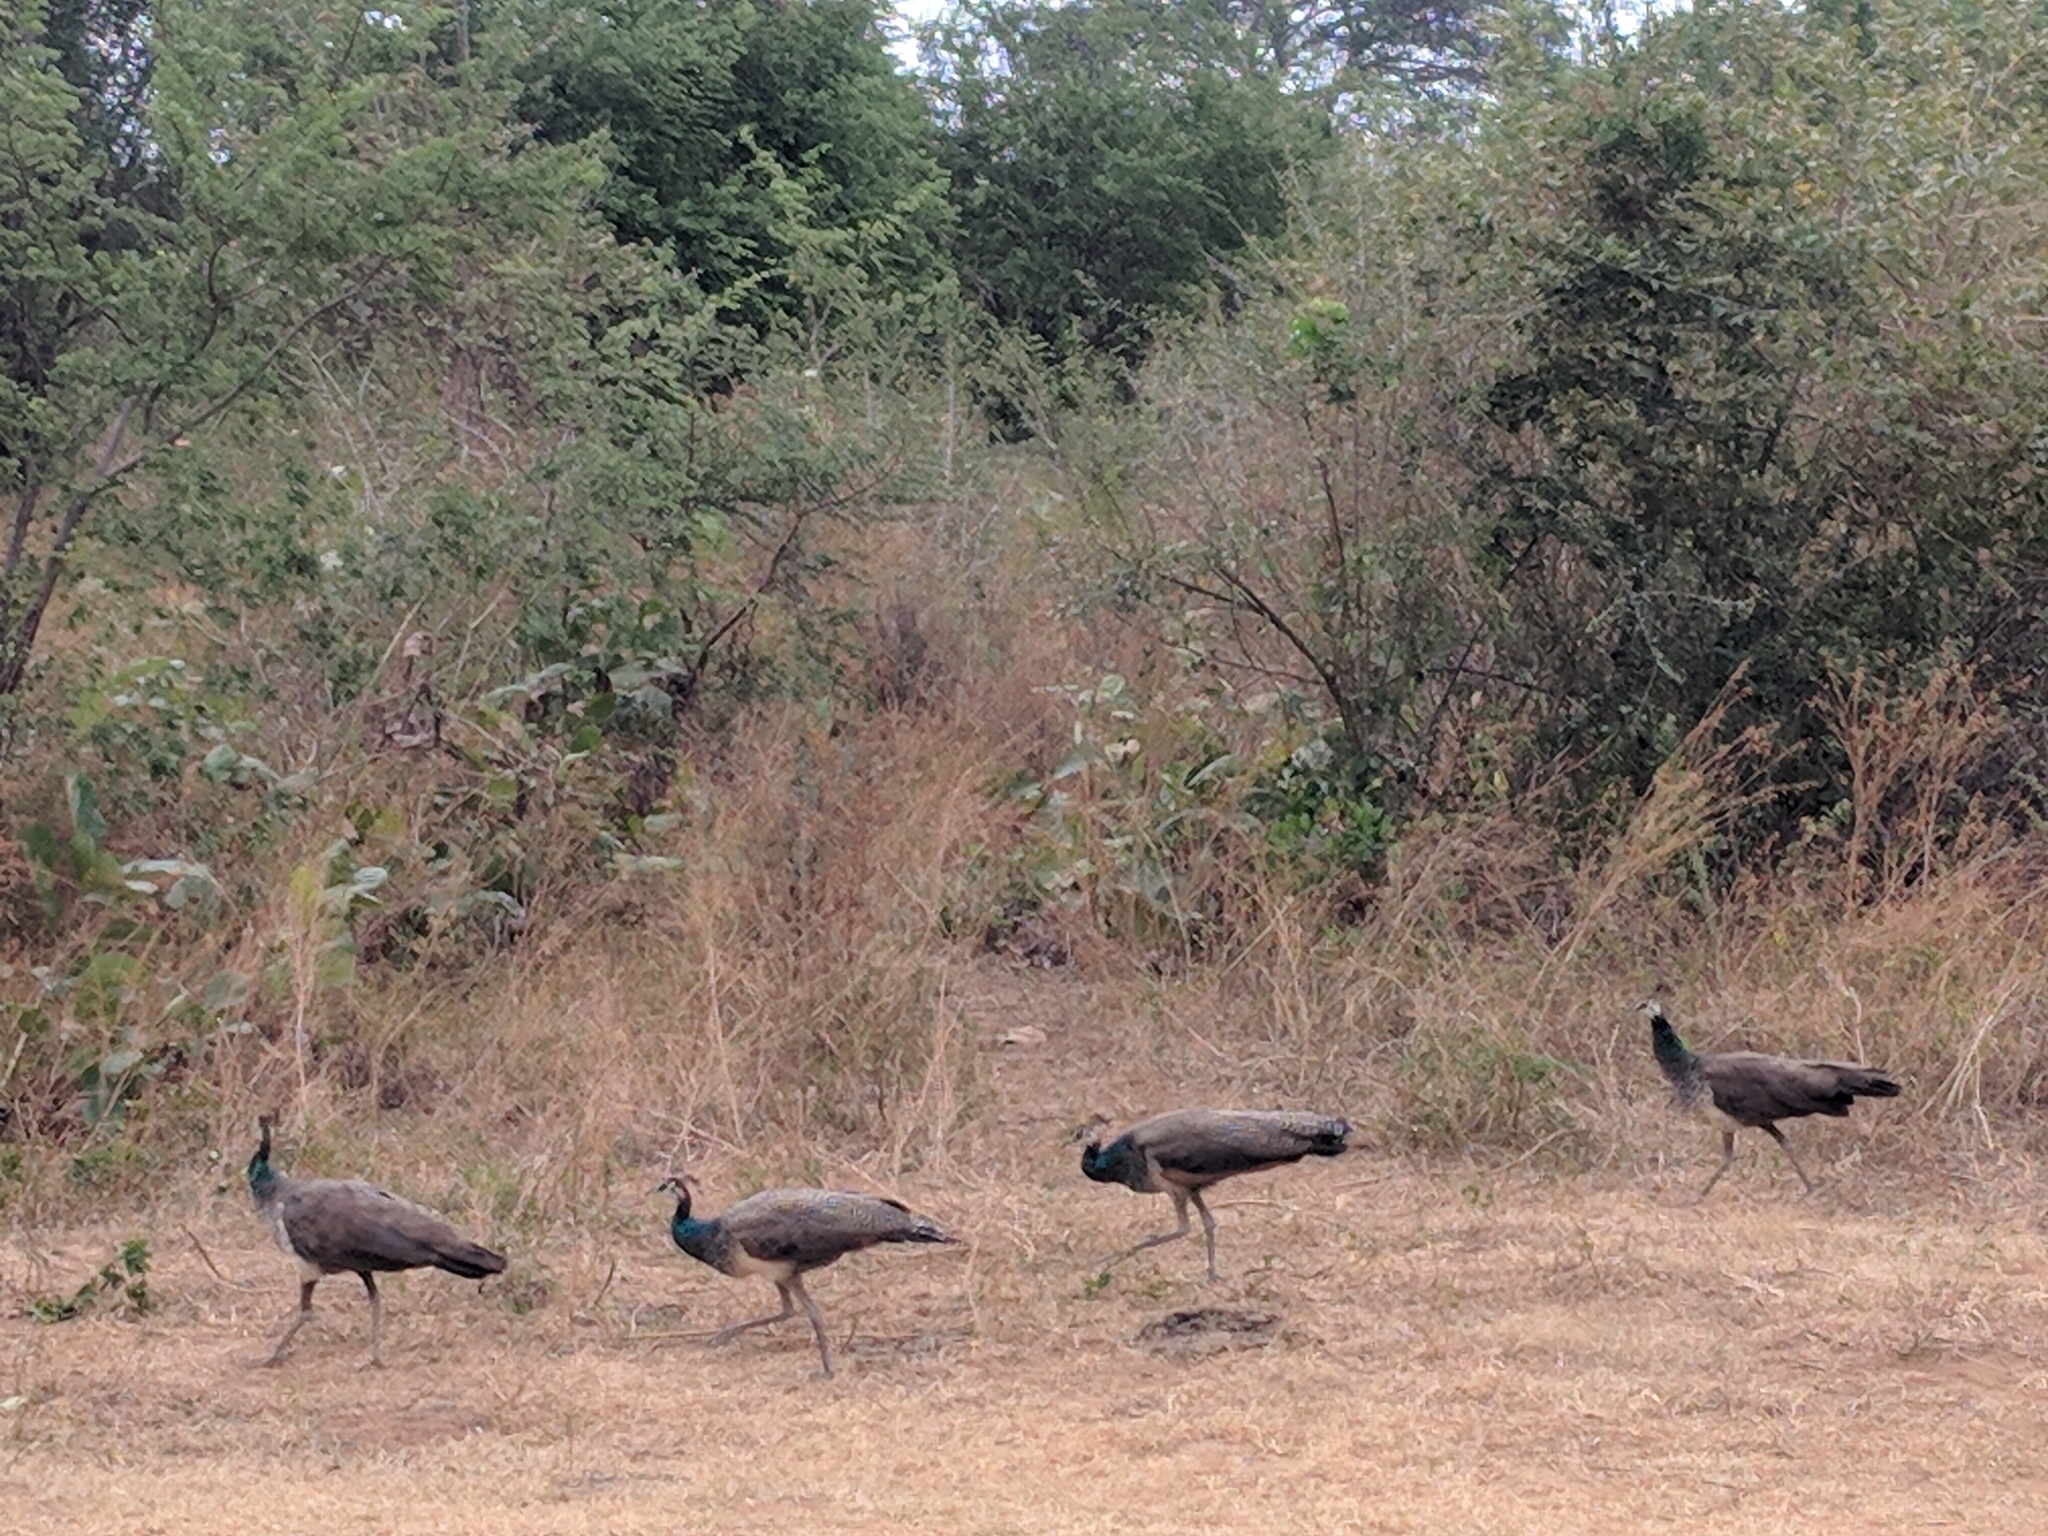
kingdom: Animalia
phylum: Chordata
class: Aves
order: Galliformes
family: Phasianidae
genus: Pavo
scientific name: Pavo cristatus
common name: Indian peafowl
